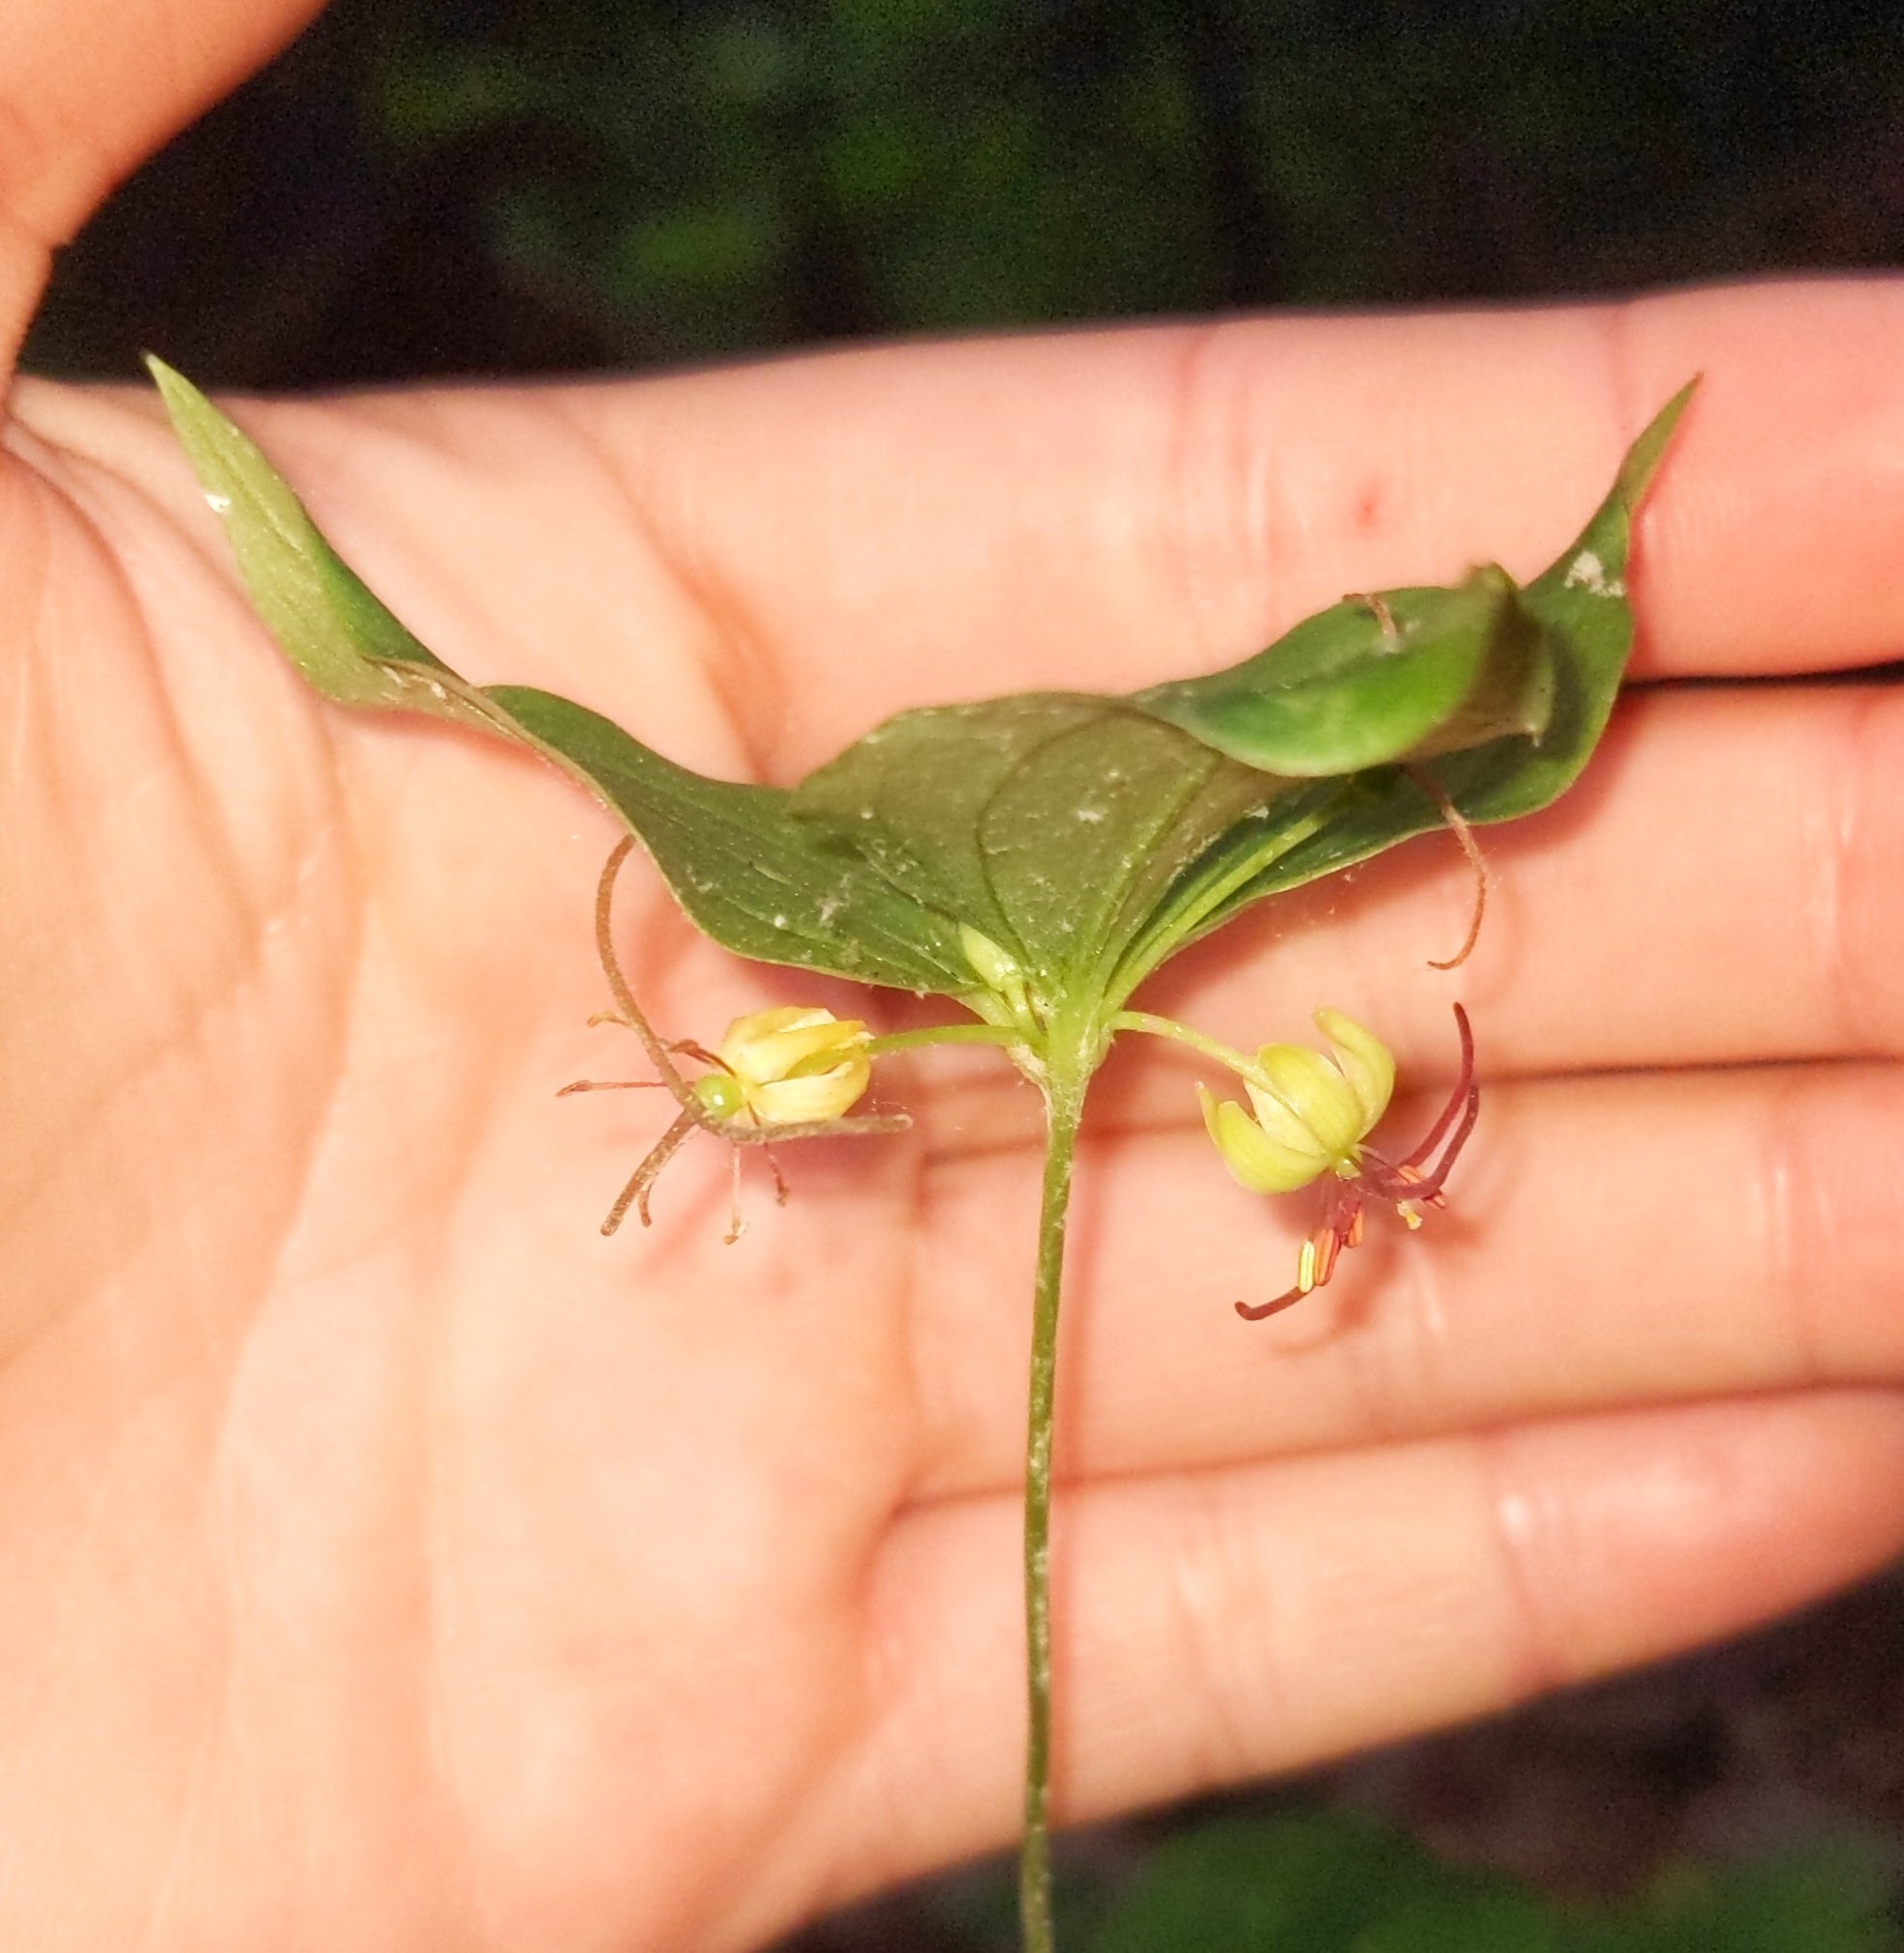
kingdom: Plantae
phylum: Tracheophyta
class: Liliopsida
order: Liliales
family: Liliaceae
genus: Medeola
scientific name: Medeola virginiana
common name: Indian cucumber-root
